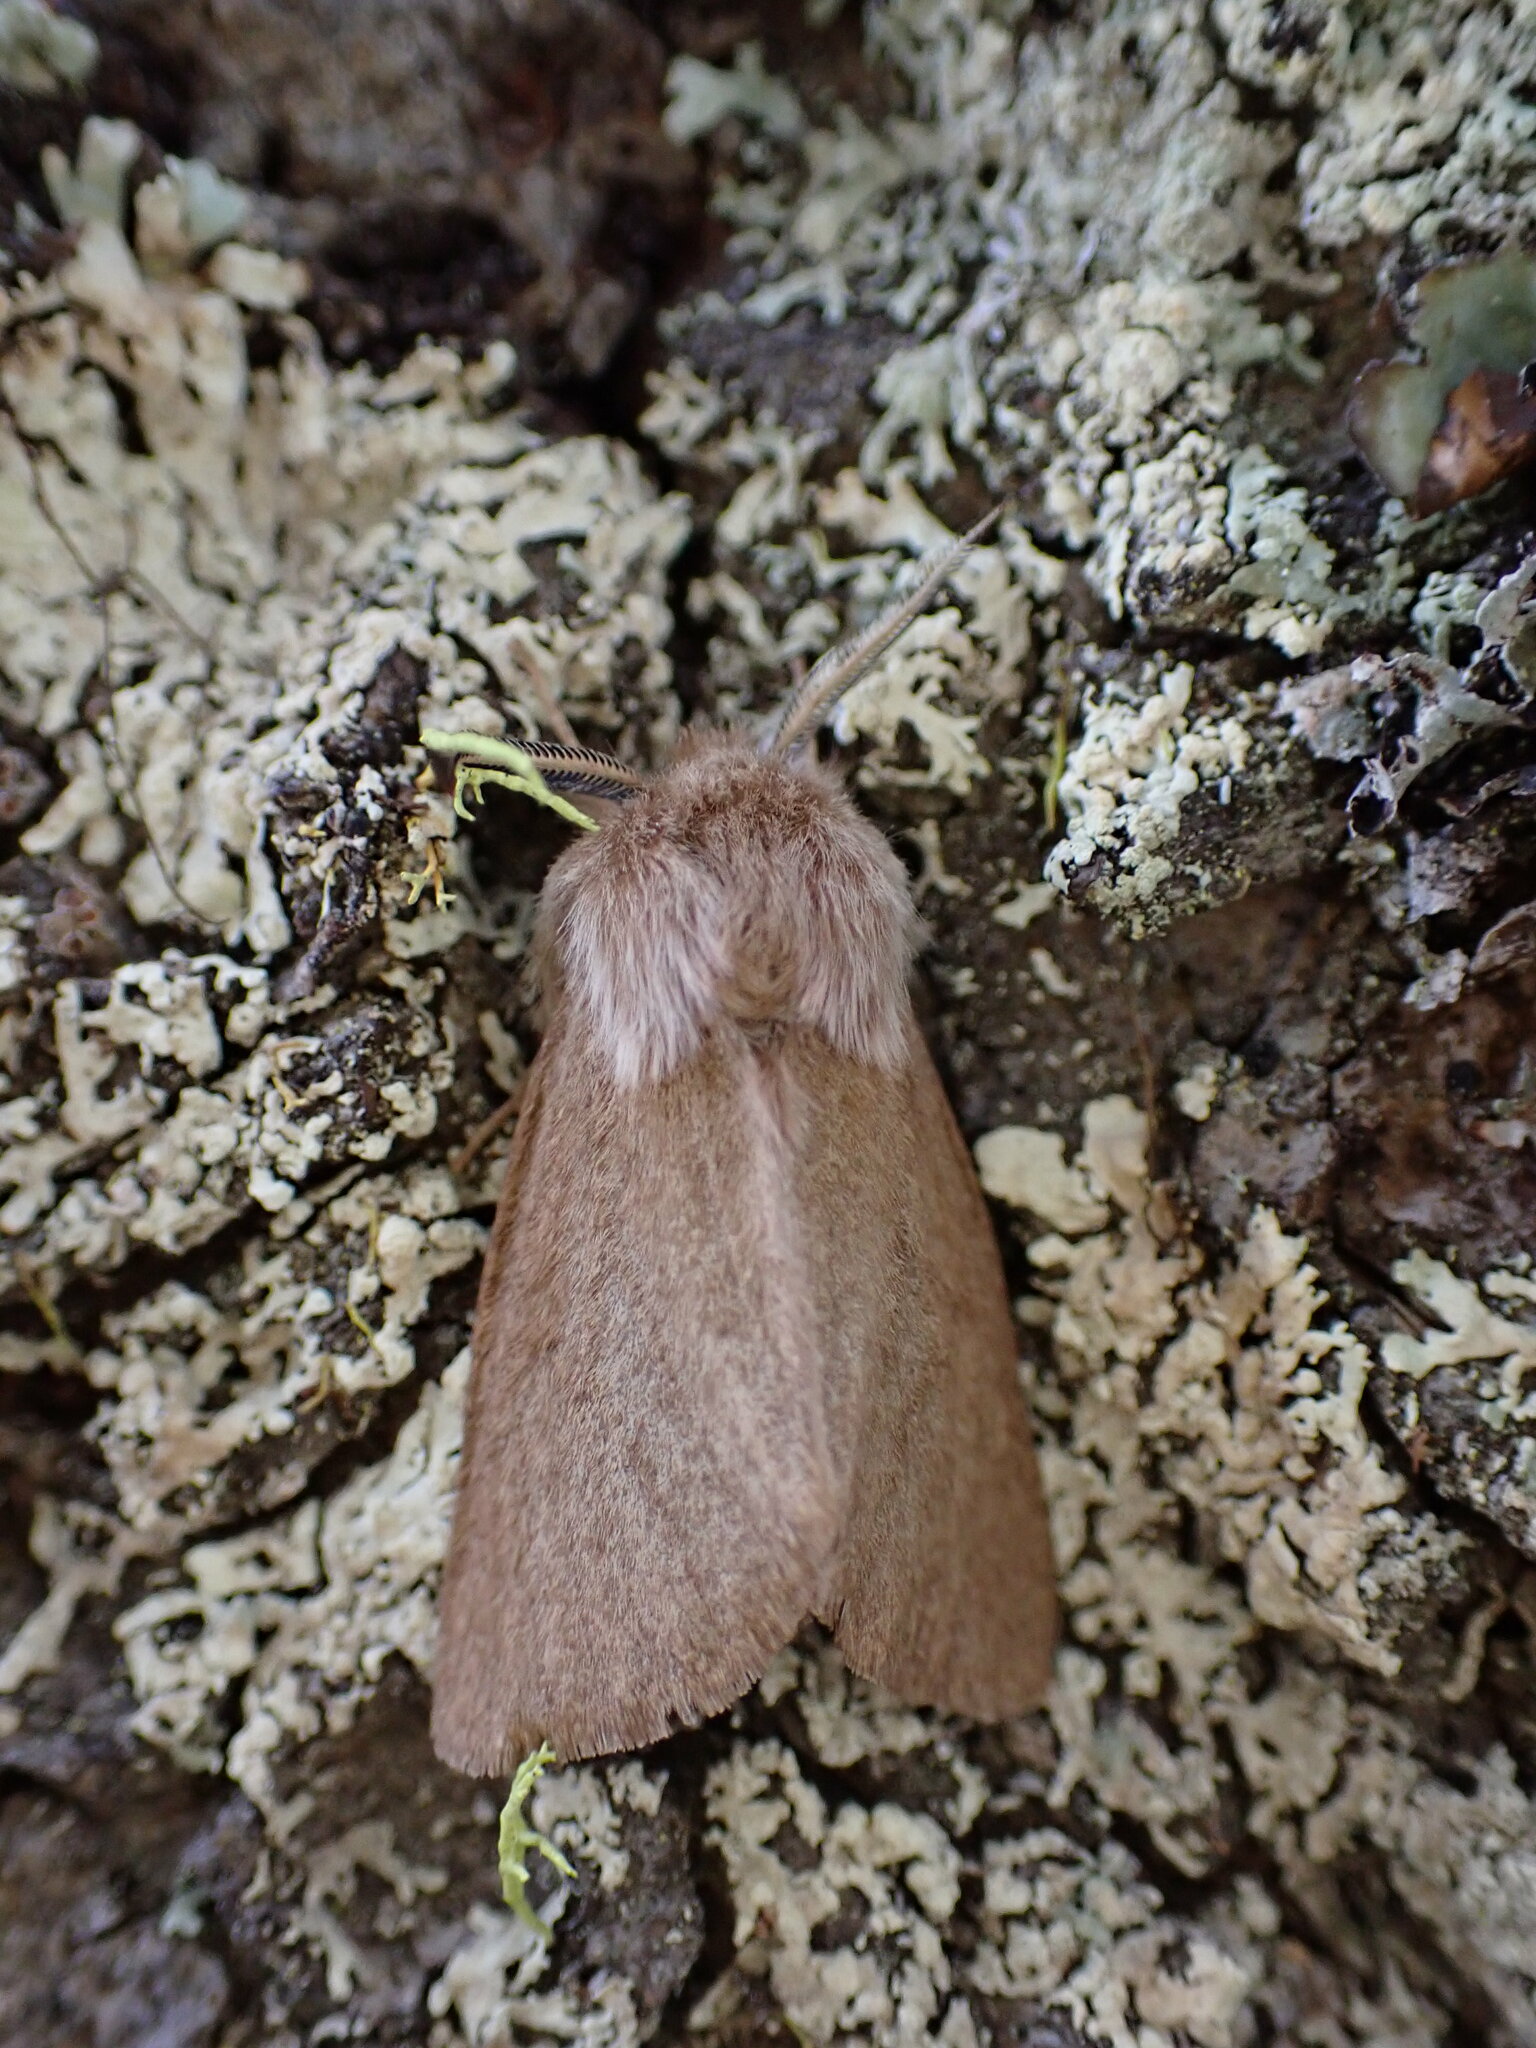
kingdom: Animalia
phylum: Arthropoda
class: Insecta
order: Lepidoptera
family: Erebidae
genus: Spilosoma
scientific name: Spilosoma vagans
